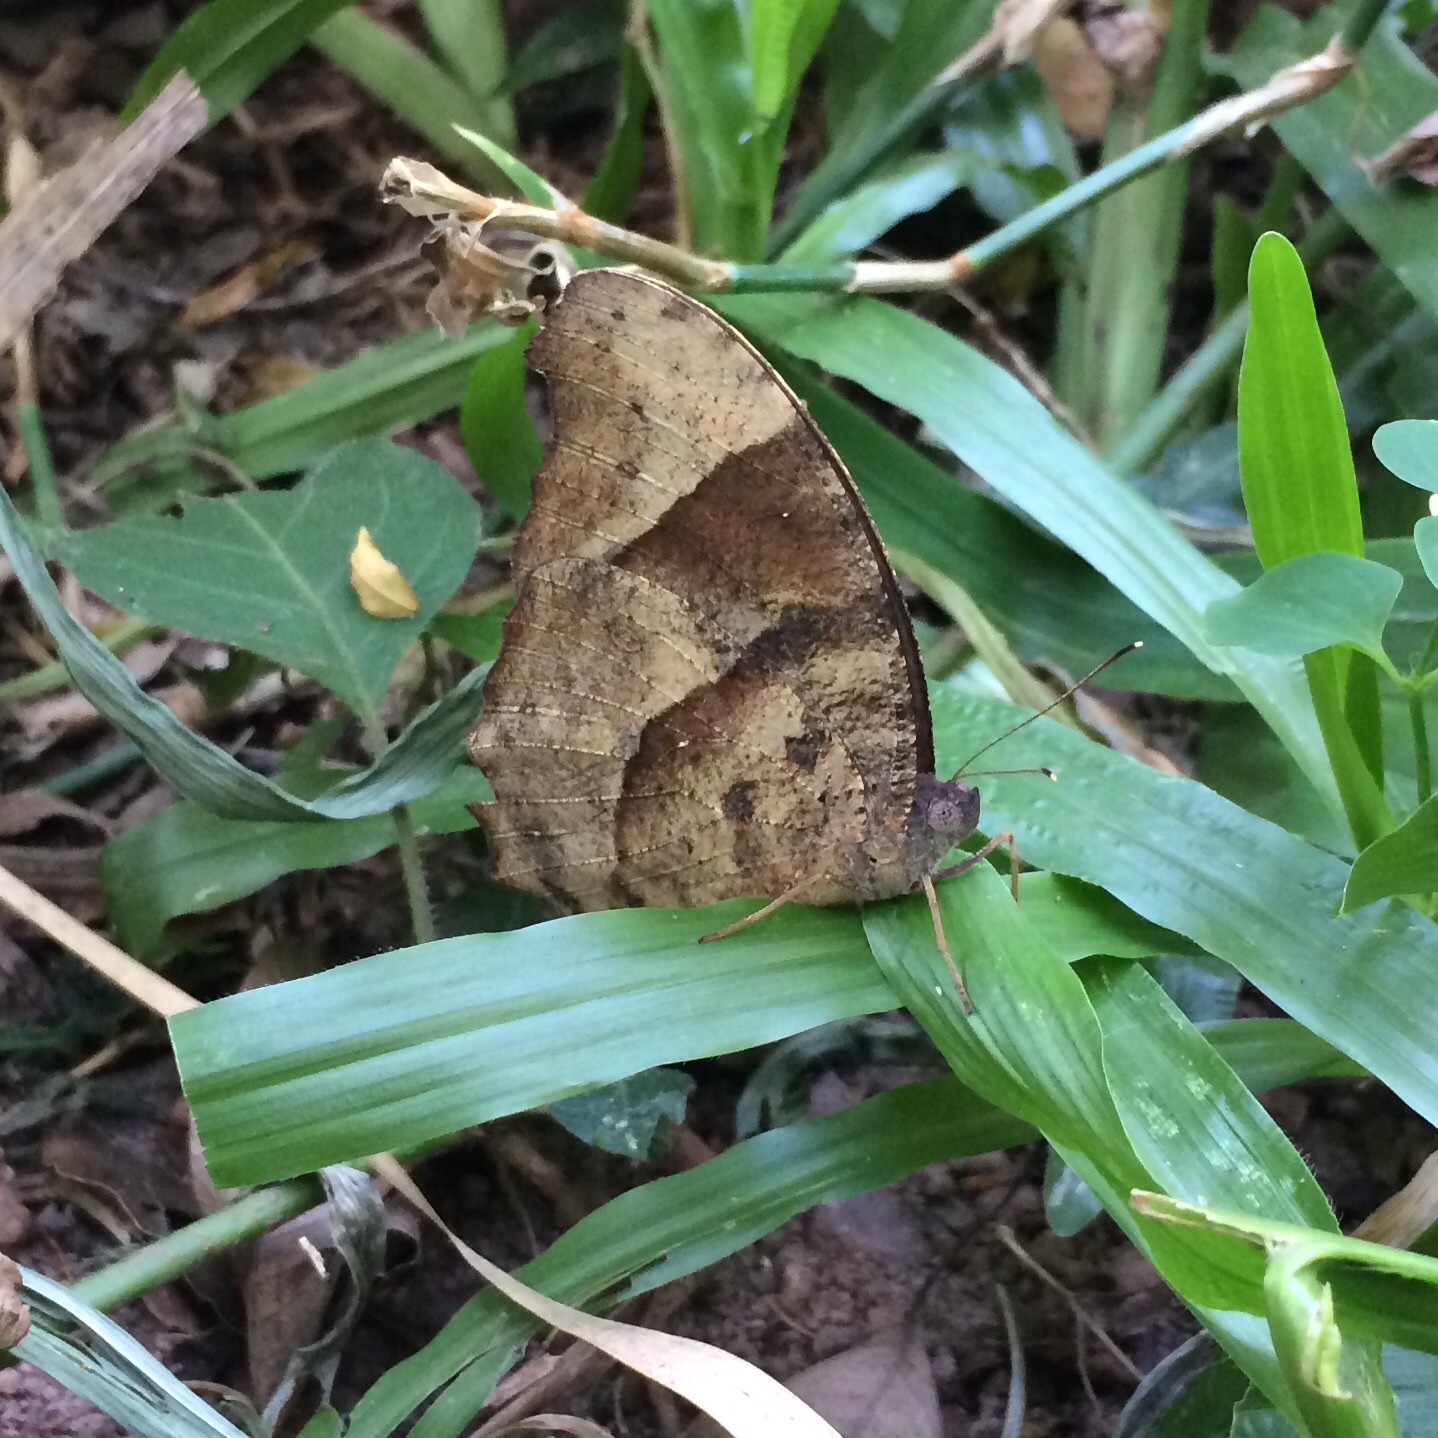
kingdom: Animalia
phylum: Arthropoda
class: Insecta
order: Lepidoptera
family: Nymphalidae
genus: Melanitis
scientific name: Melanitis leda
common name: Twilight brown
